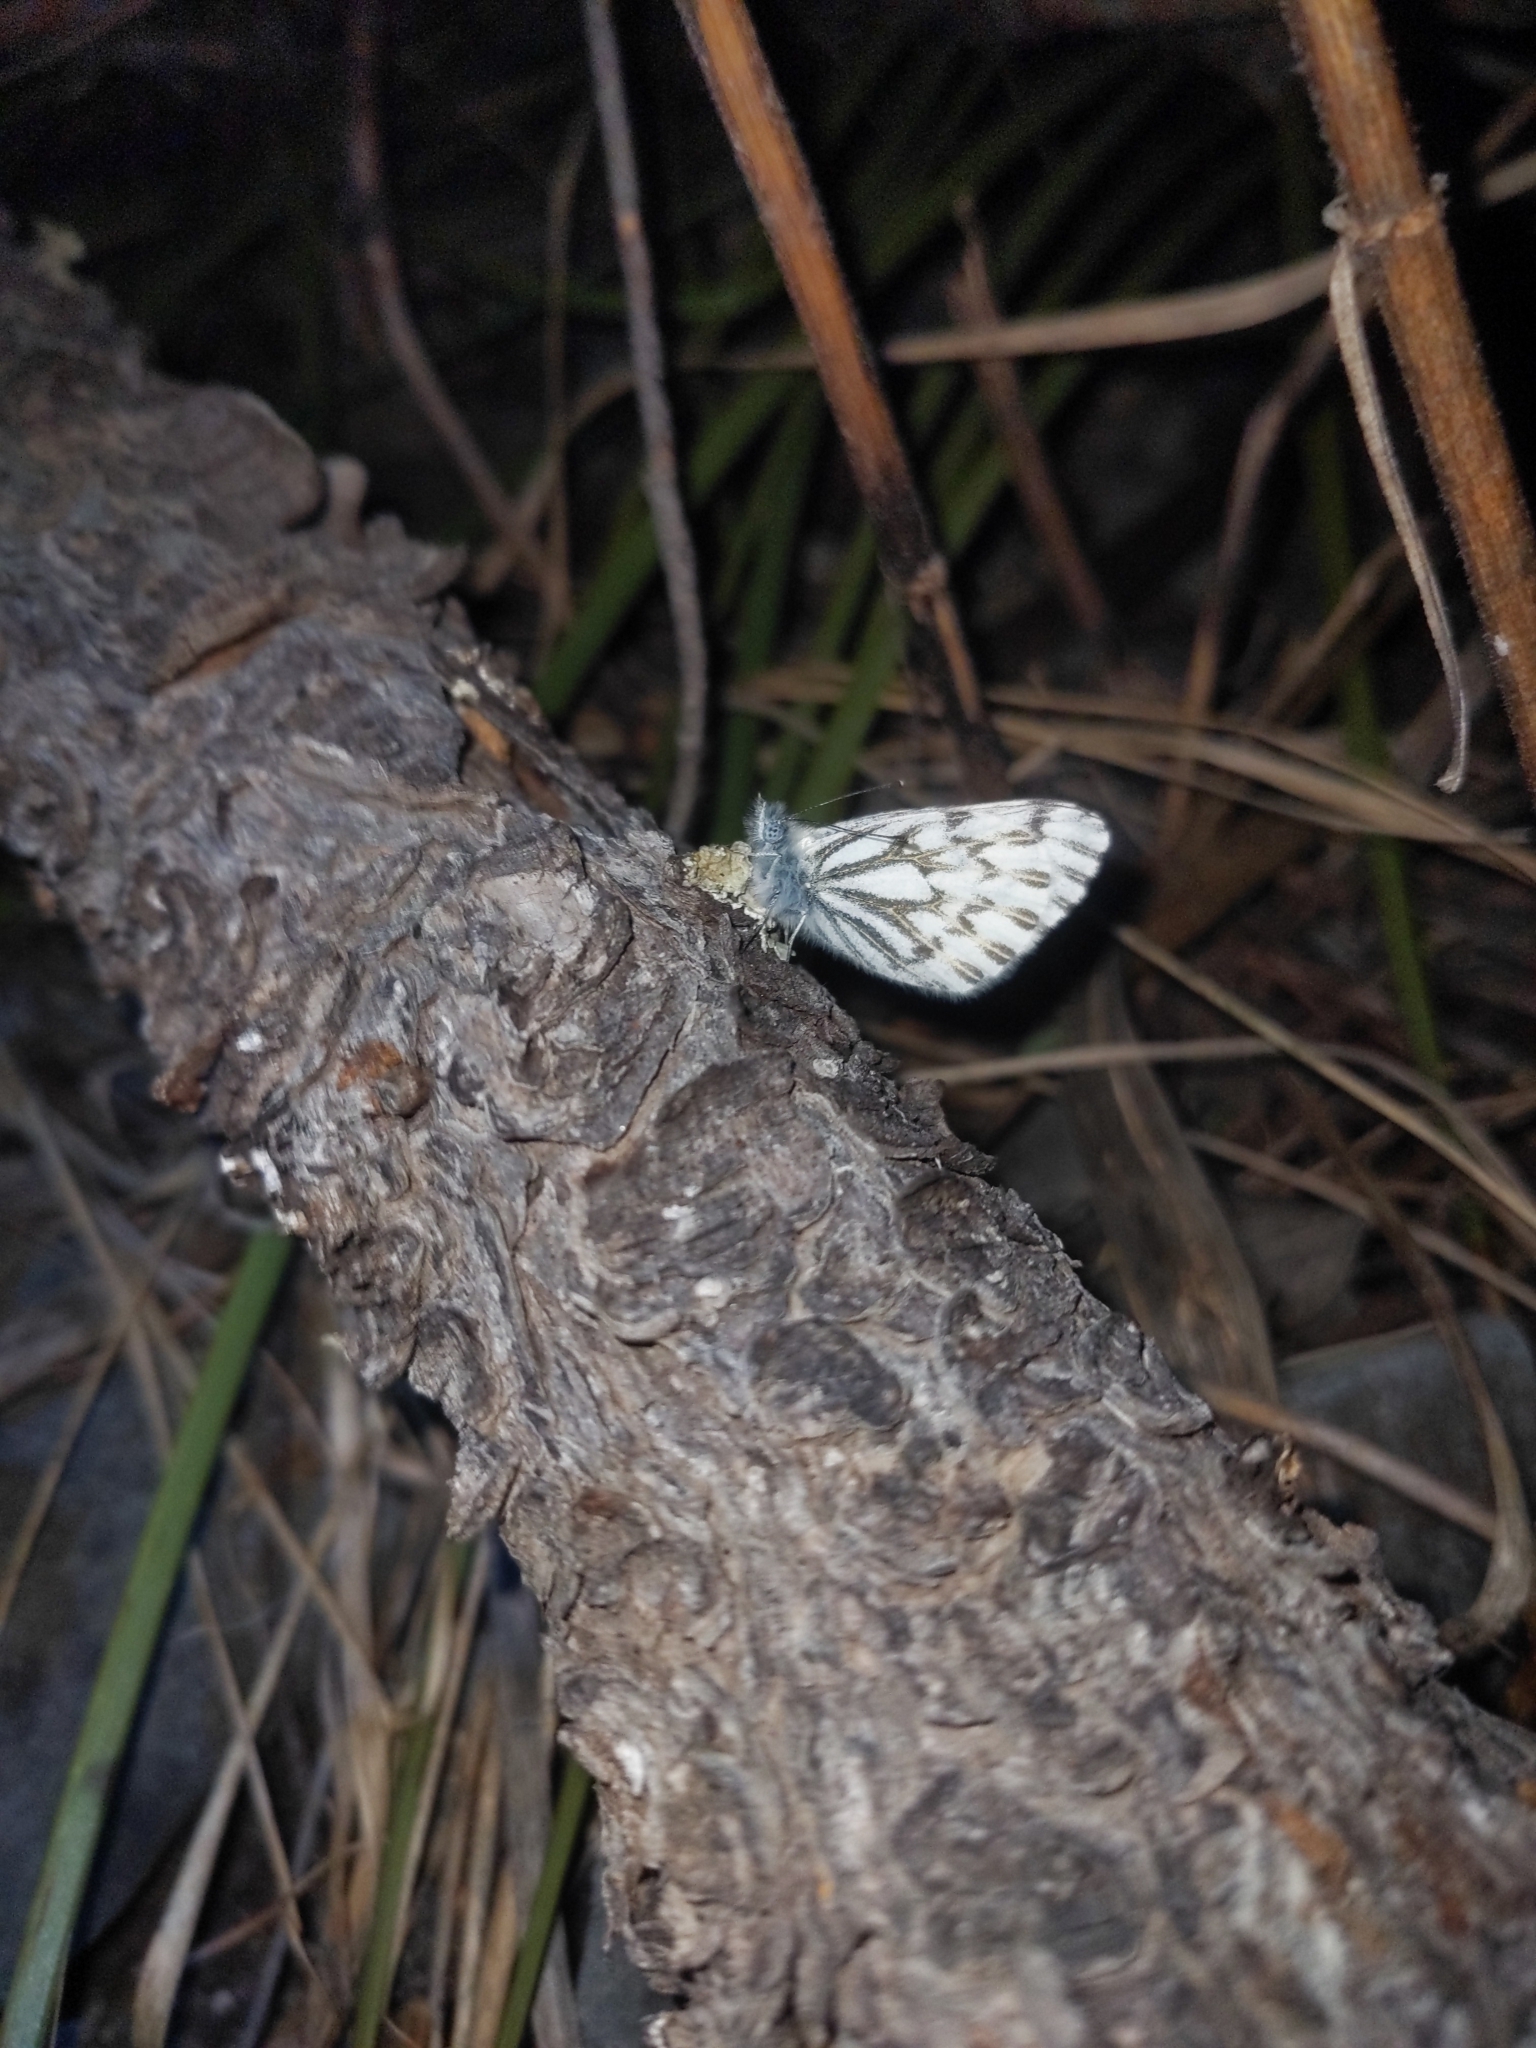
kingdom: Animalia
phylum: Arthropoda
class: Insecta
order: Lepidoptera
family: Pieridae
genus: Pontia
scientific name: Pontia sisymbrii
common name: California white
